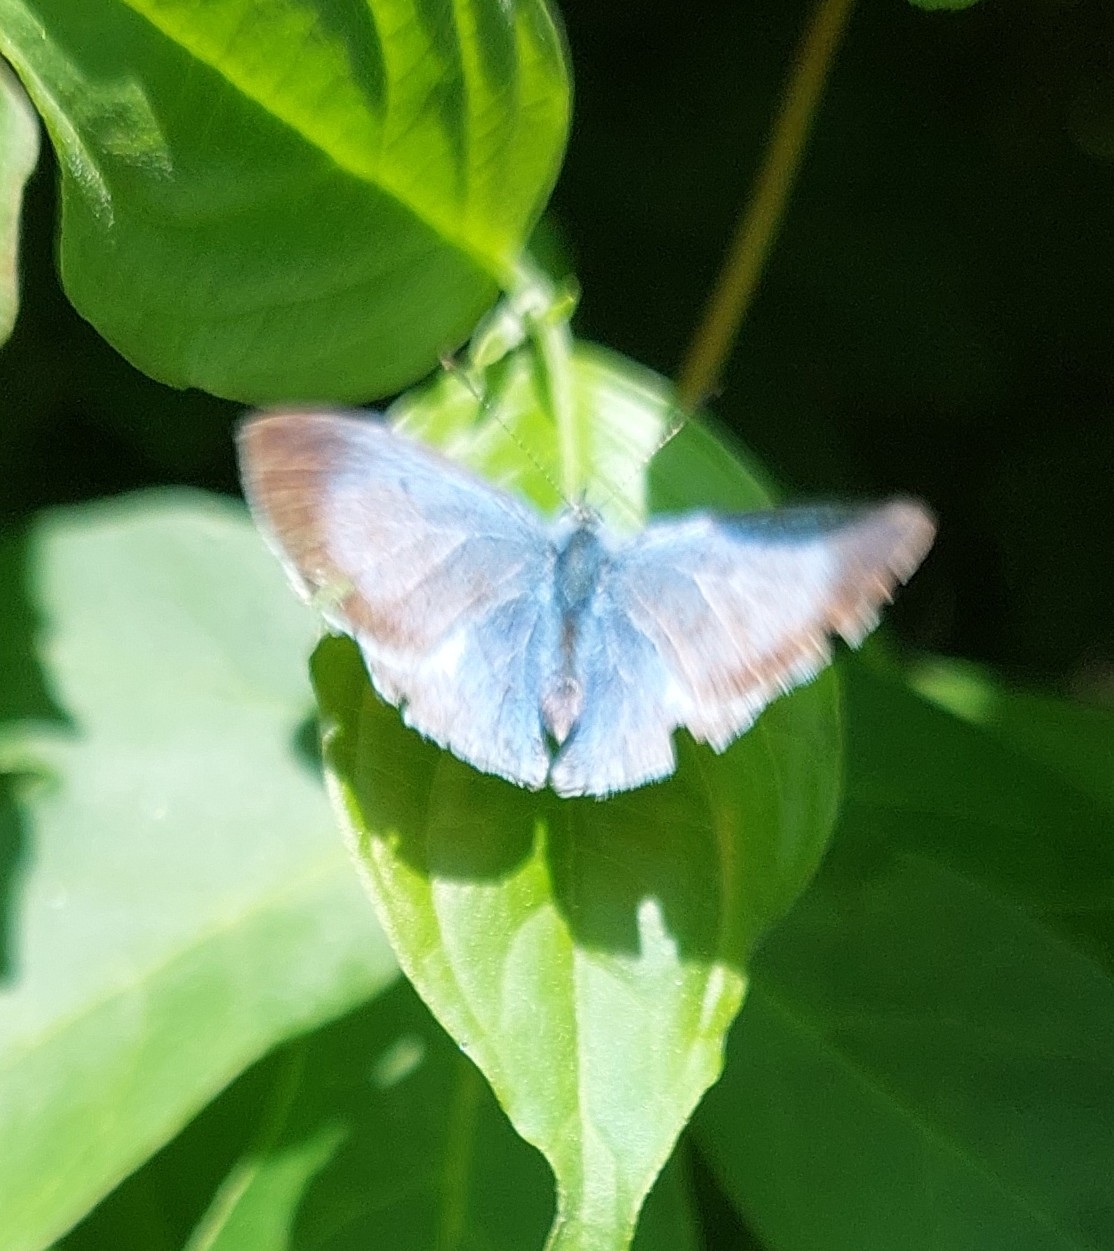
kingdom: Animalia
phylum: Arthropoda
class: Insecta
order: Lepidoptera
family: Lycaenidae
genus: Celastrina
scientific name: Celastrina argiolus
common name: Holly blue
